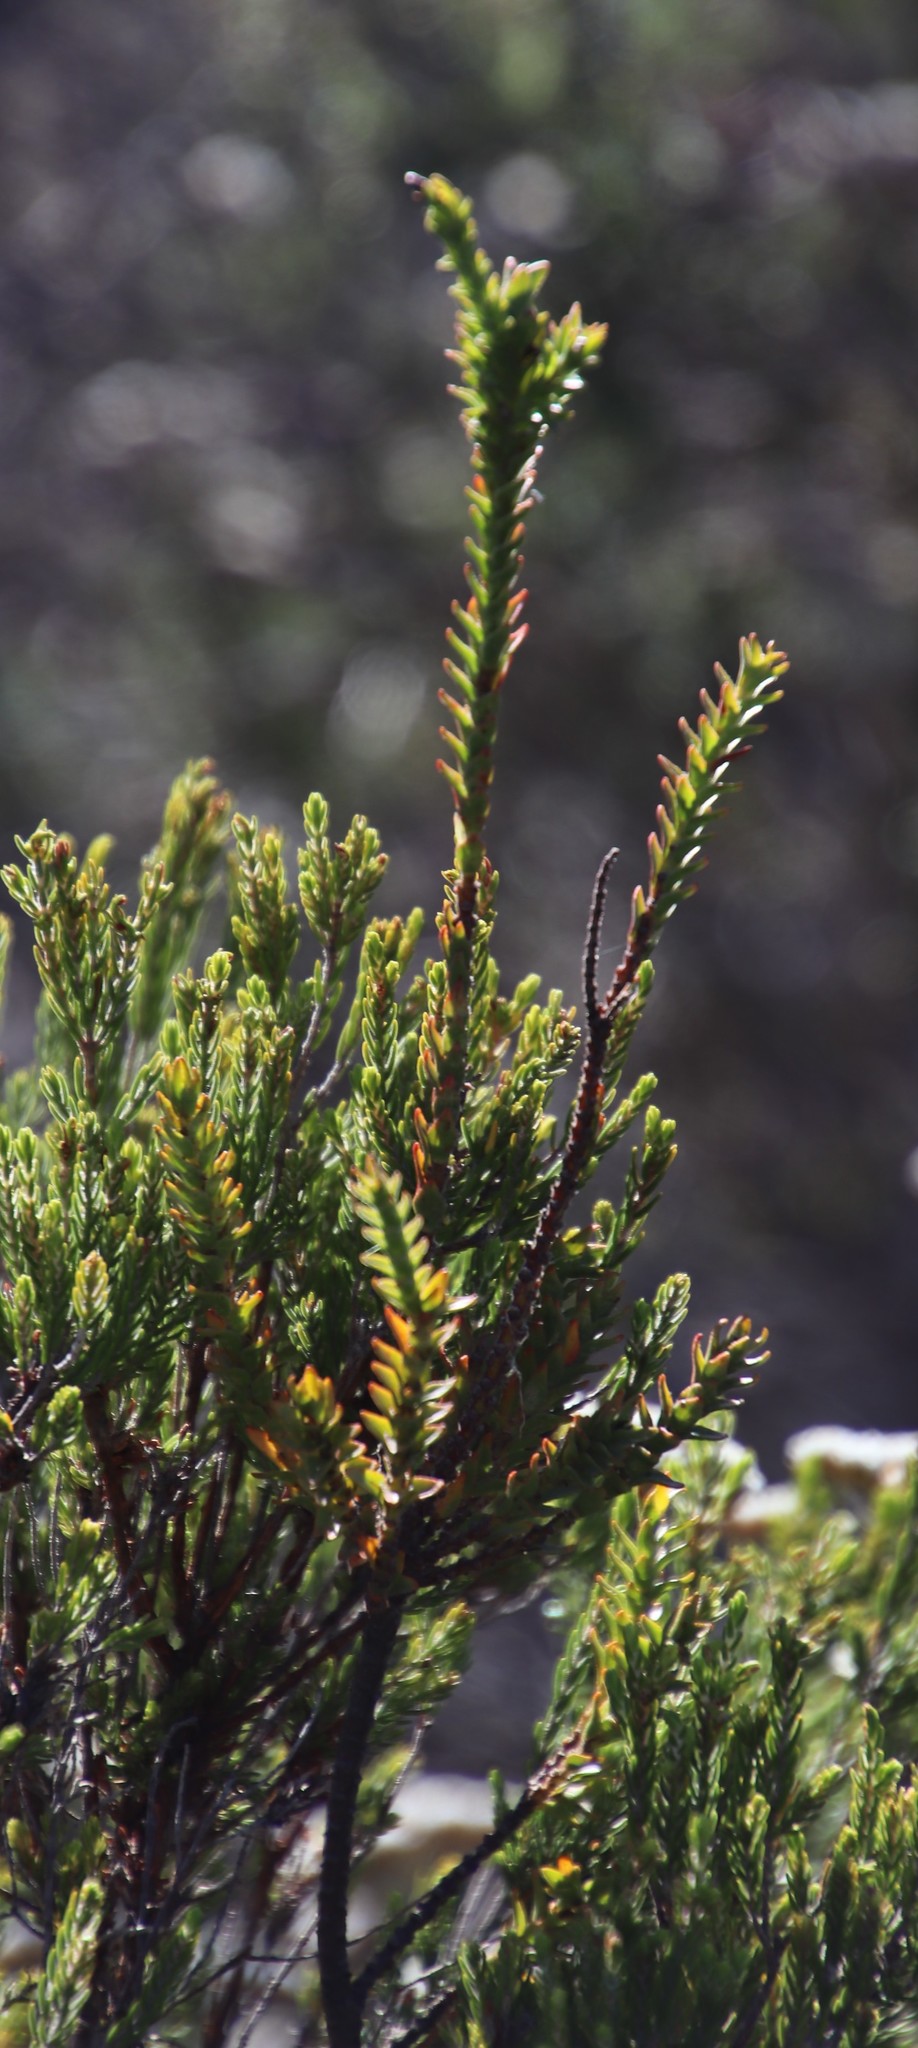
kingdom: Plantae
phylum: Tracheophyta
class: Magnoliopsida
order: Malvales
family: Thymelaeaceae
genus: Struthiola
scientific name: Struthiola striata
